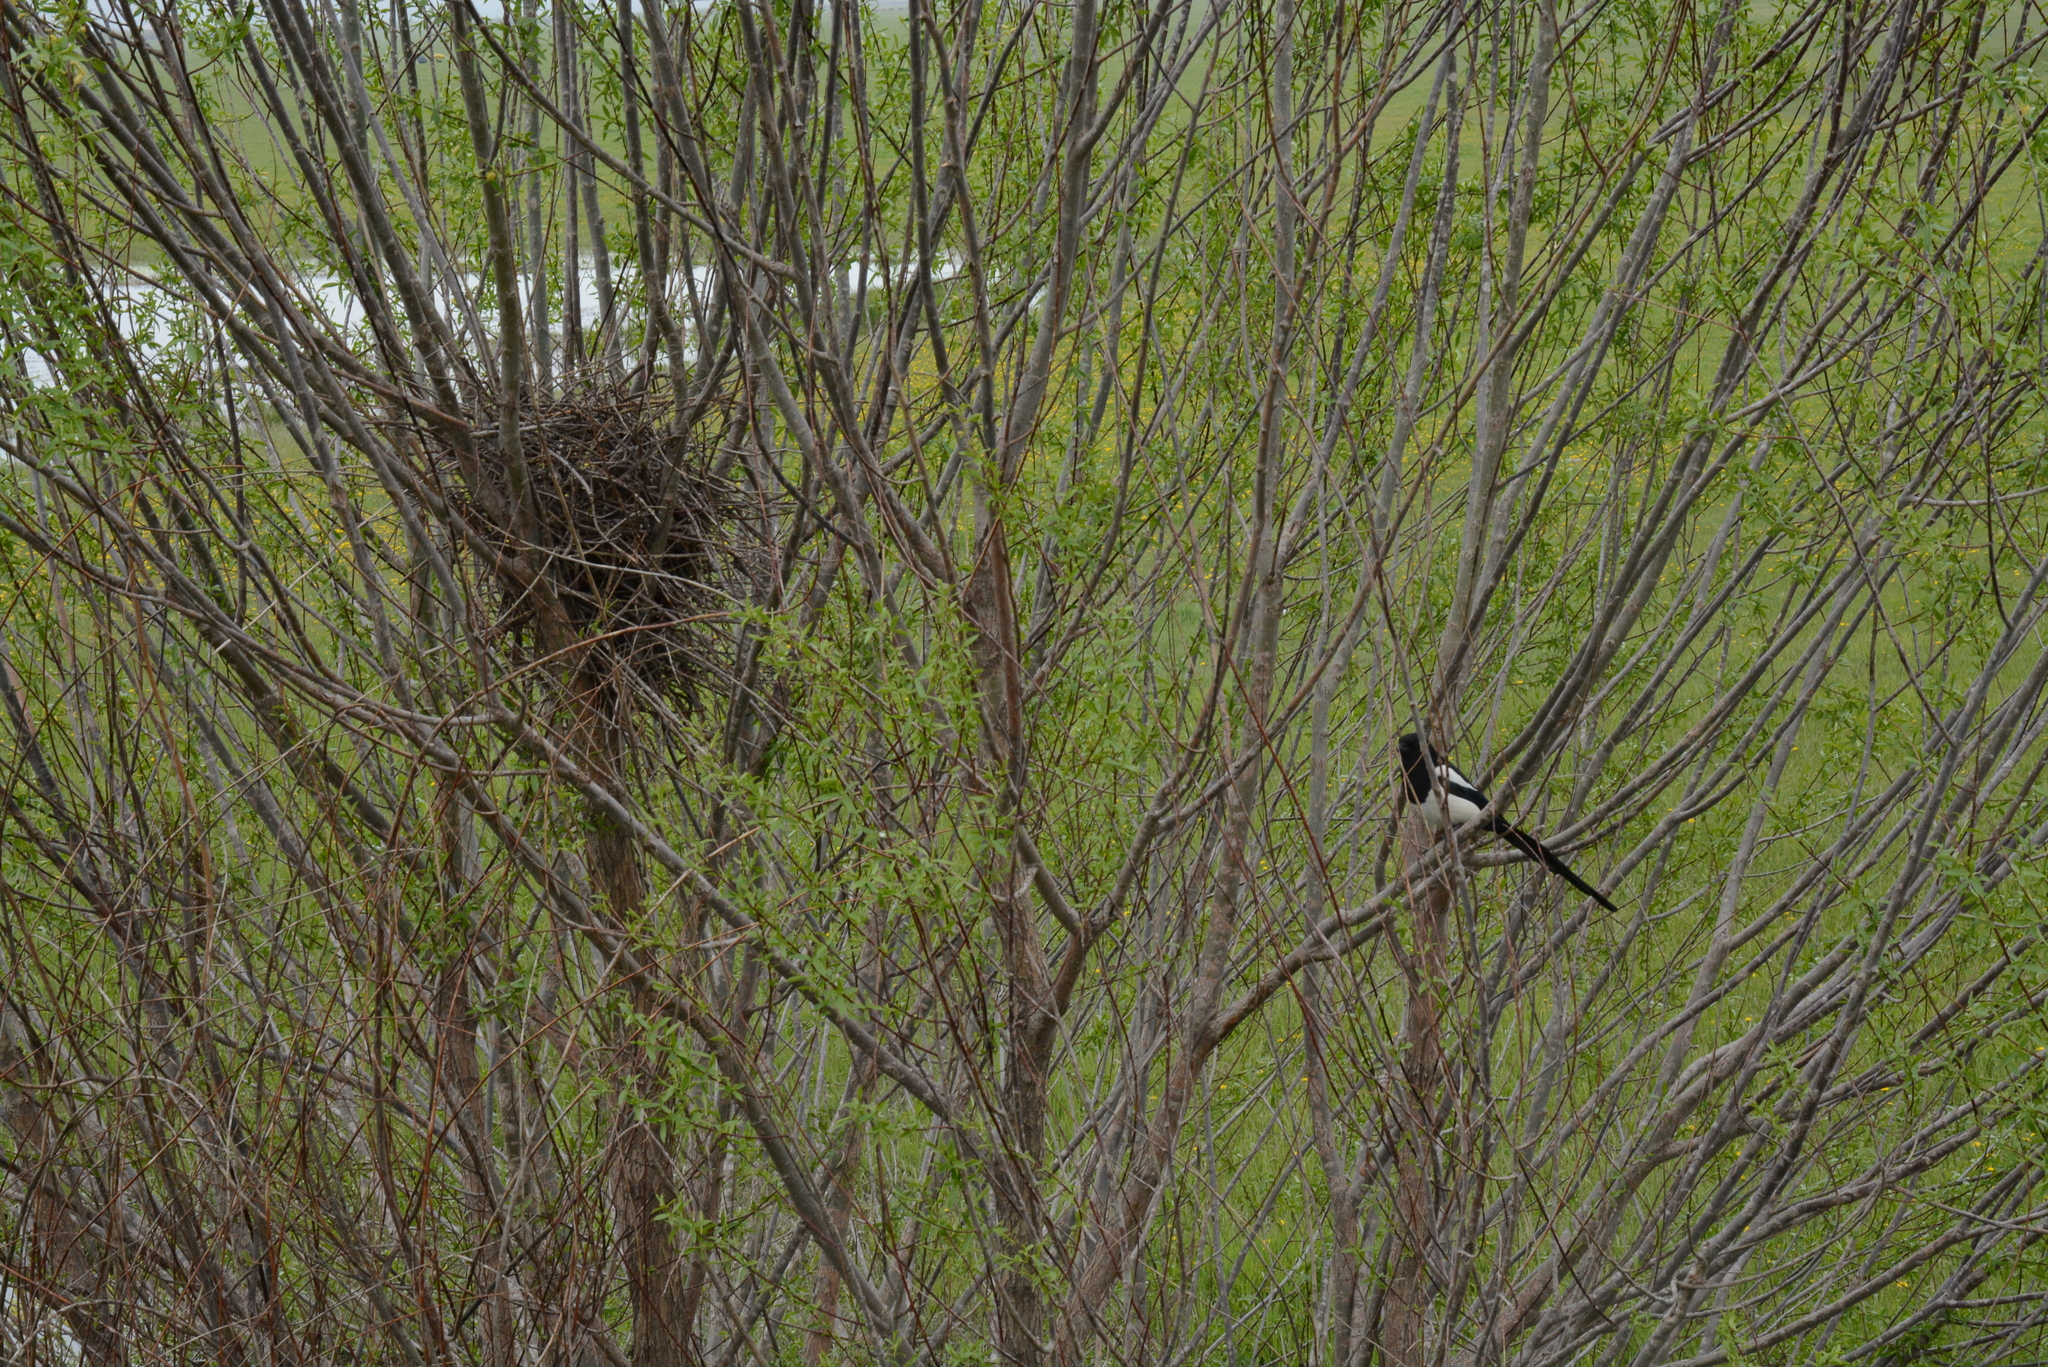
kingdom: Animalia
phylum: Chordata
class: Aves
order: Passeriformes
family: Corvidae
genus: Pica
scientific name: Pica pica
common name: Eurasian magpie
